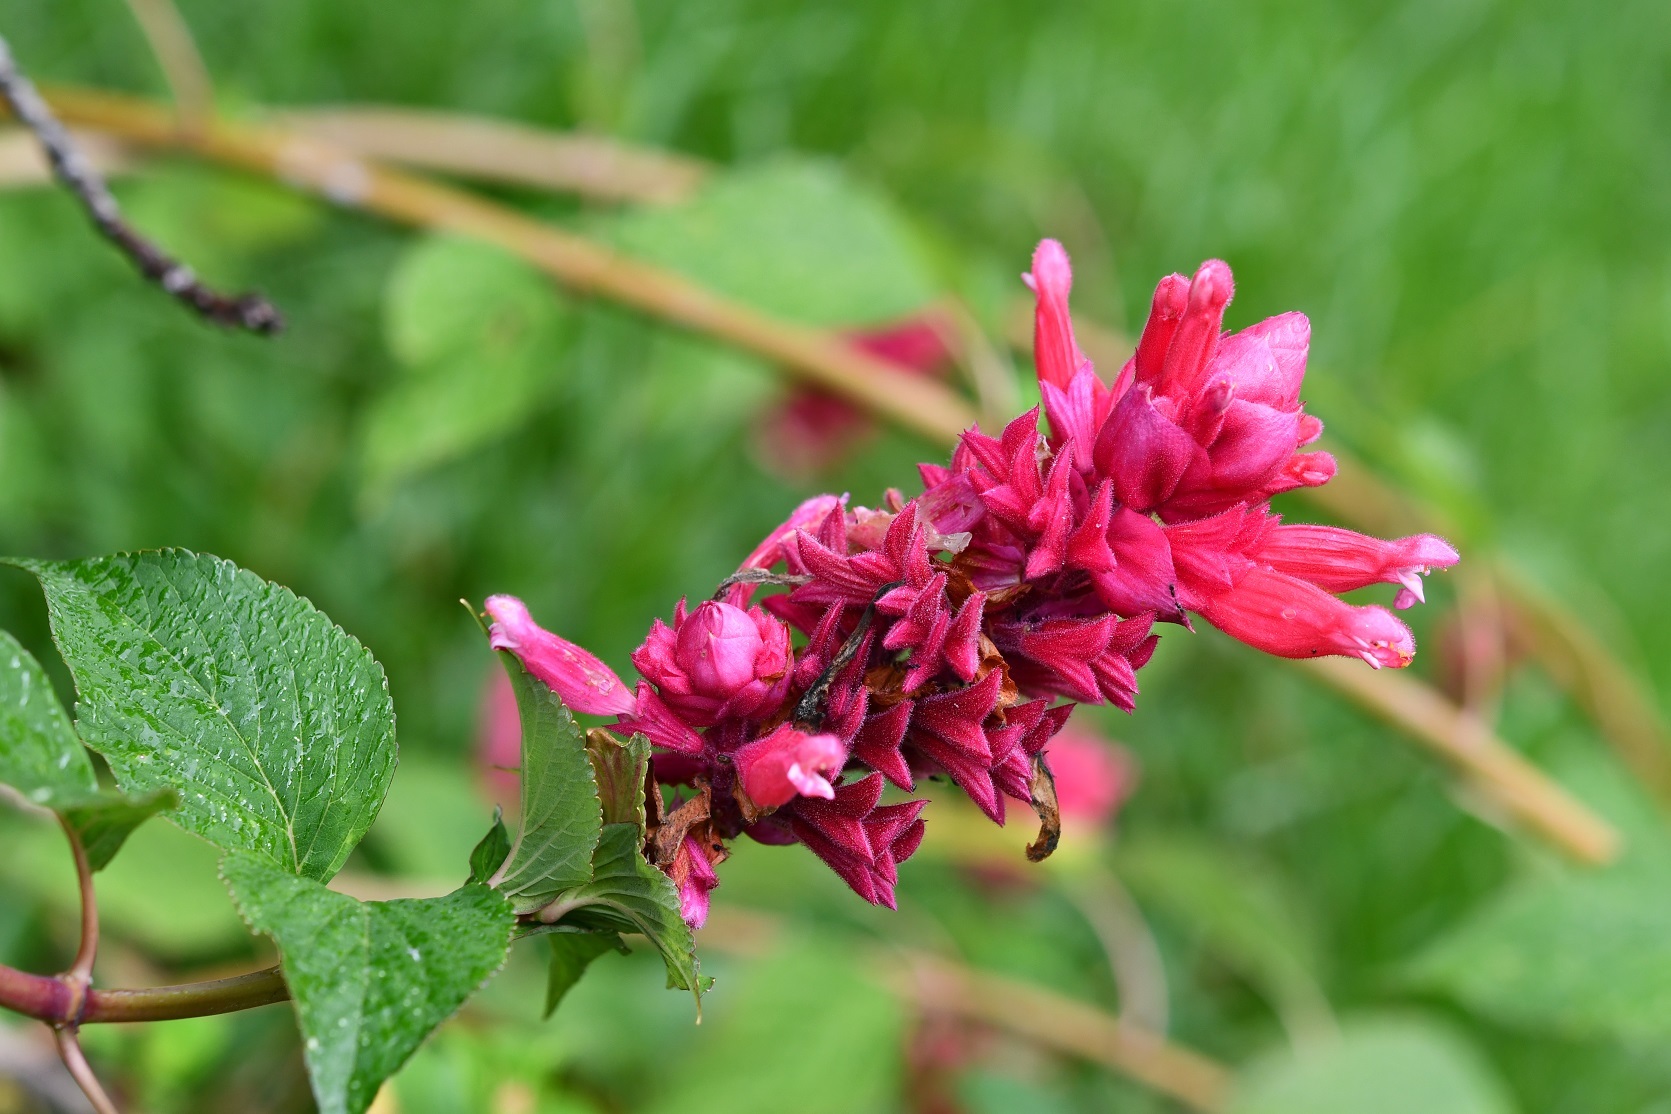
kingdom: Plantae
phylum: Tracheophyta
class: Magnoliopsida
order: Lamiales
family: Lamiaceae
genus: Salvia
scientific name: Salvia wagneriana
